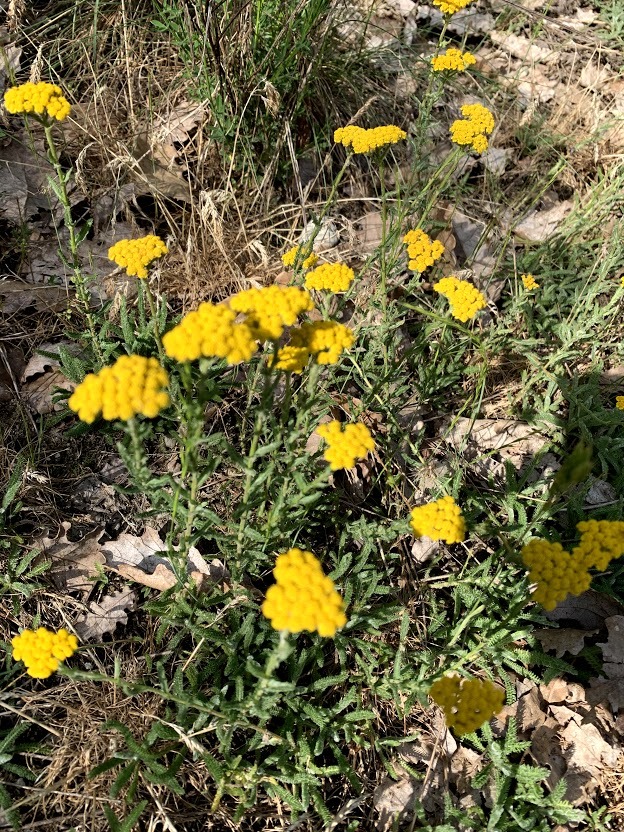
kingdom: Plantae
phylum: Tracheophyta
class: Magnoliopsida
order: Asterales
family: Asteraceae
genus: Tanacetum
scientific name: Tanacetum vulgare
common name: Common tansy
